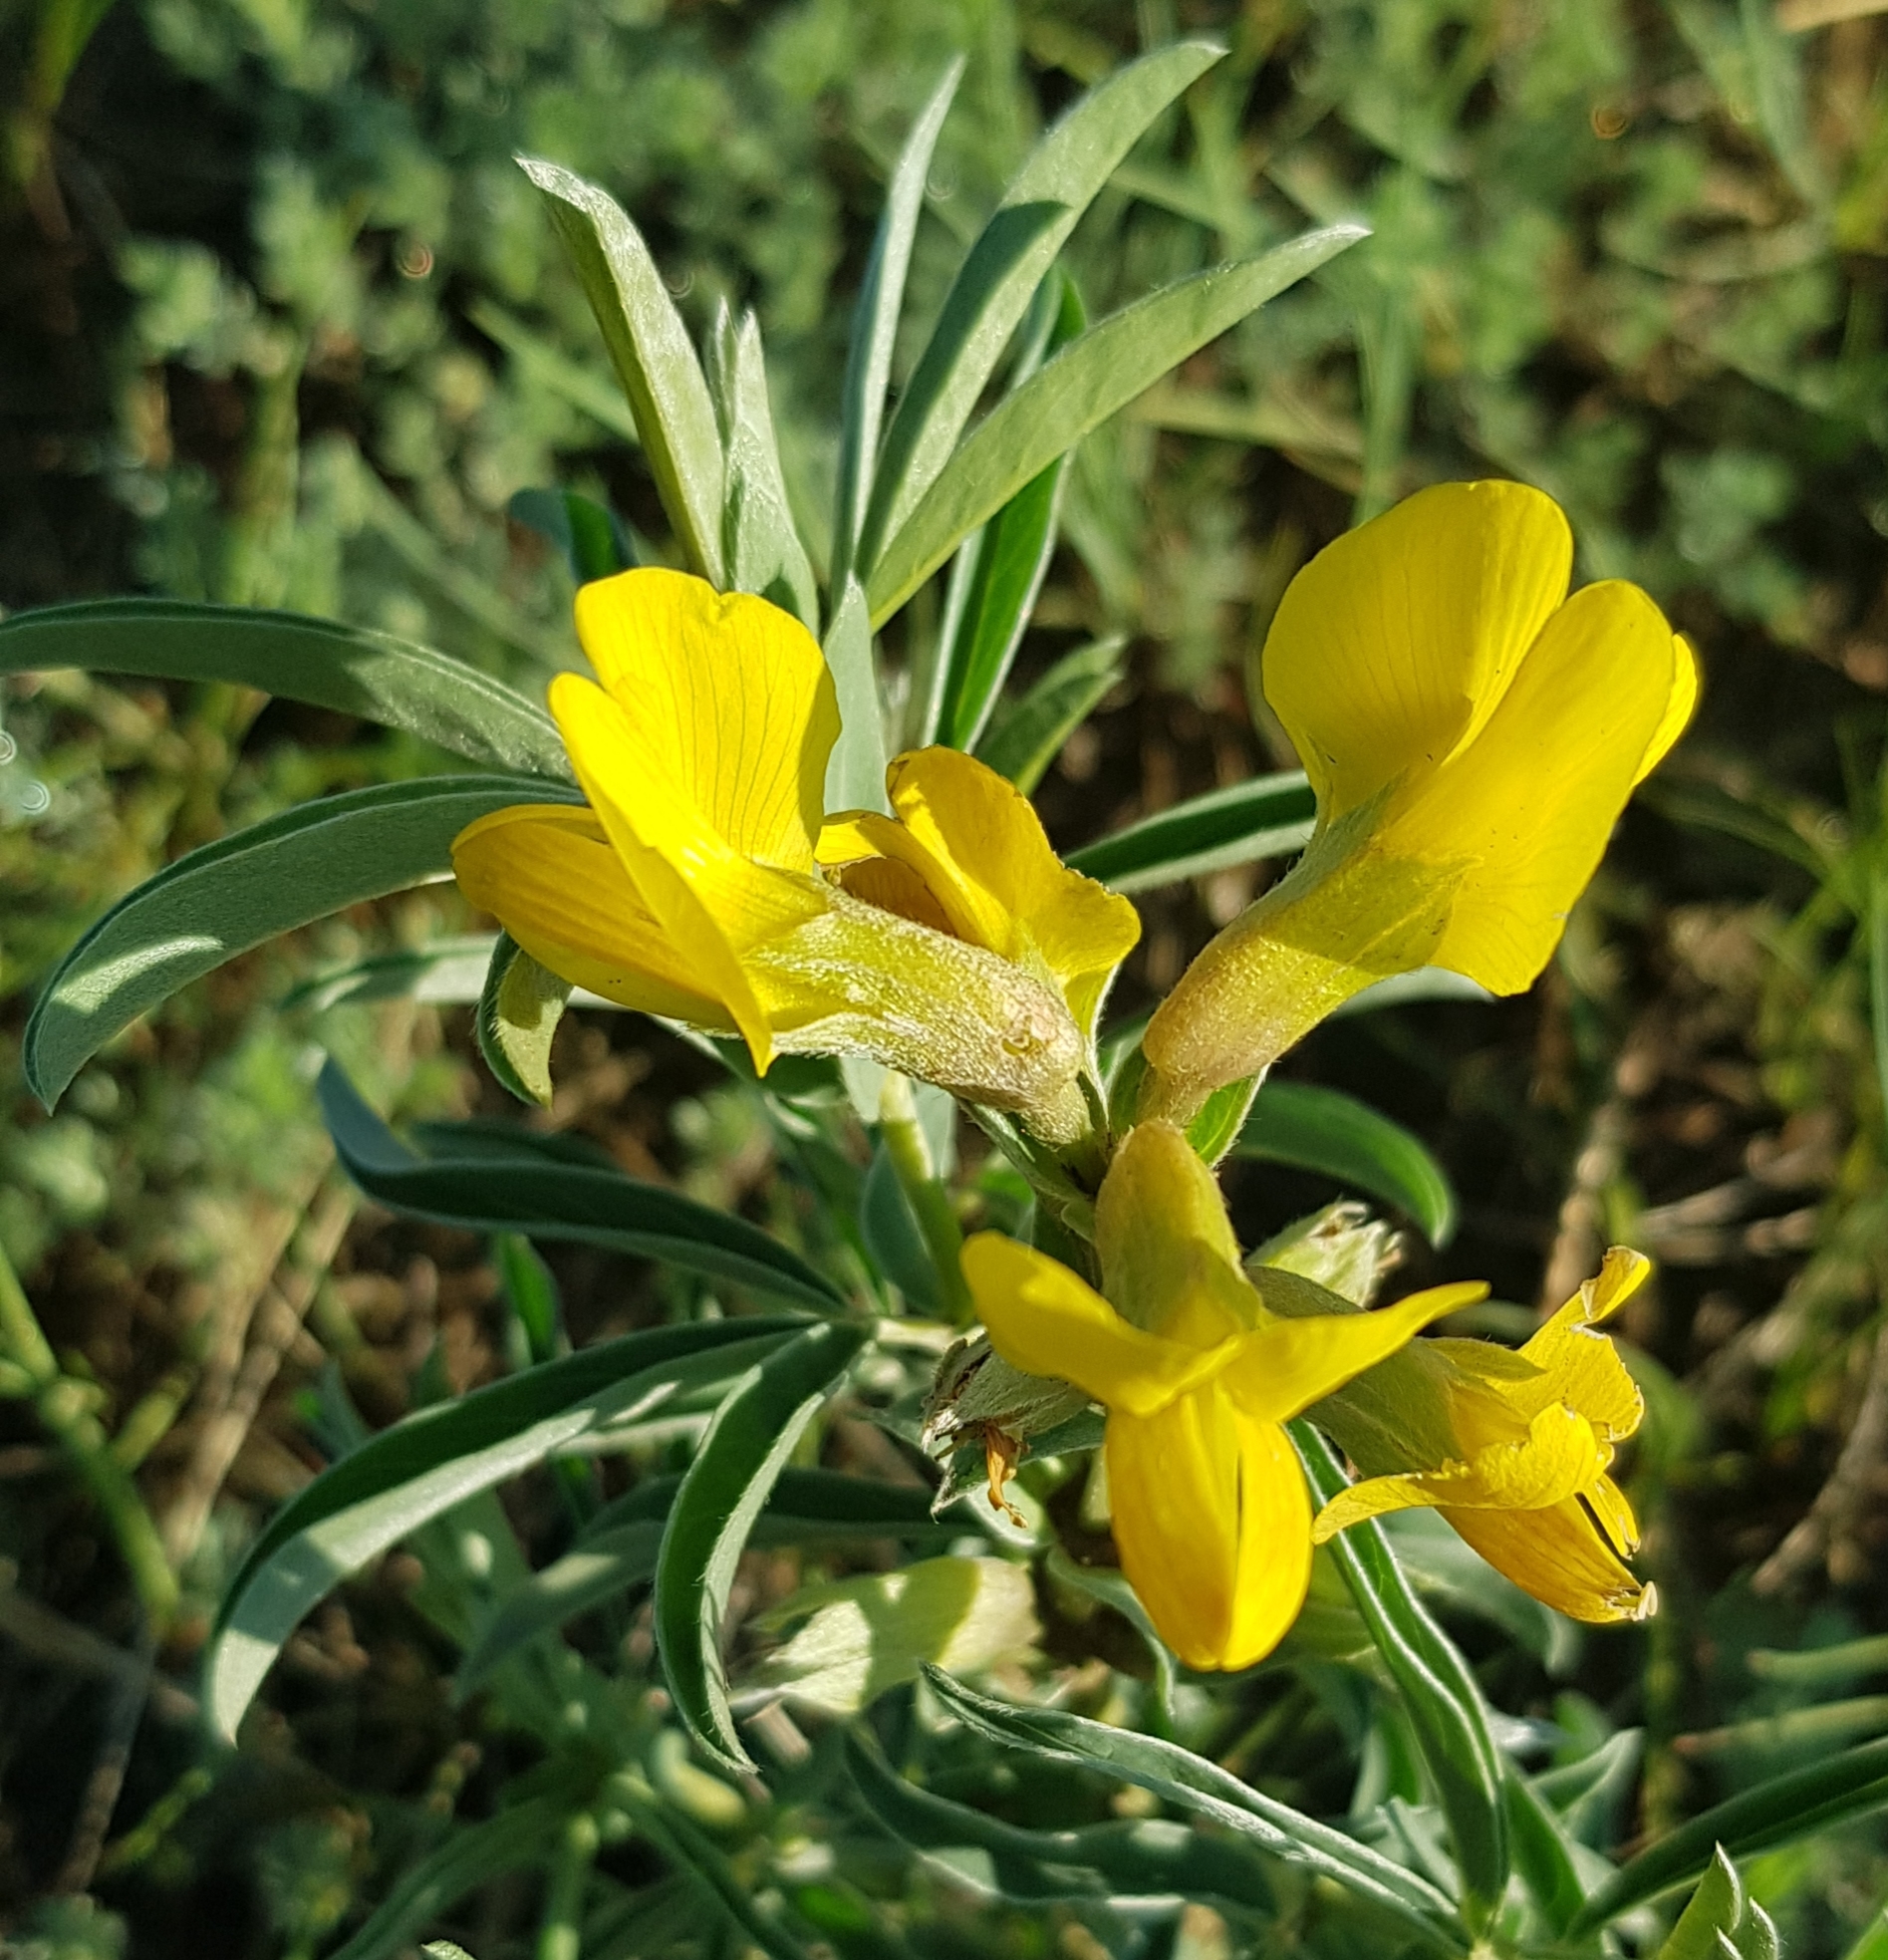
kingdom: Plantae
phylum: Tracheophyta
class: Magnoliopsida
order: Fabales
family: Fabaceae
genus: Thermopsis
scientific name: Thermopsis lanceolata
